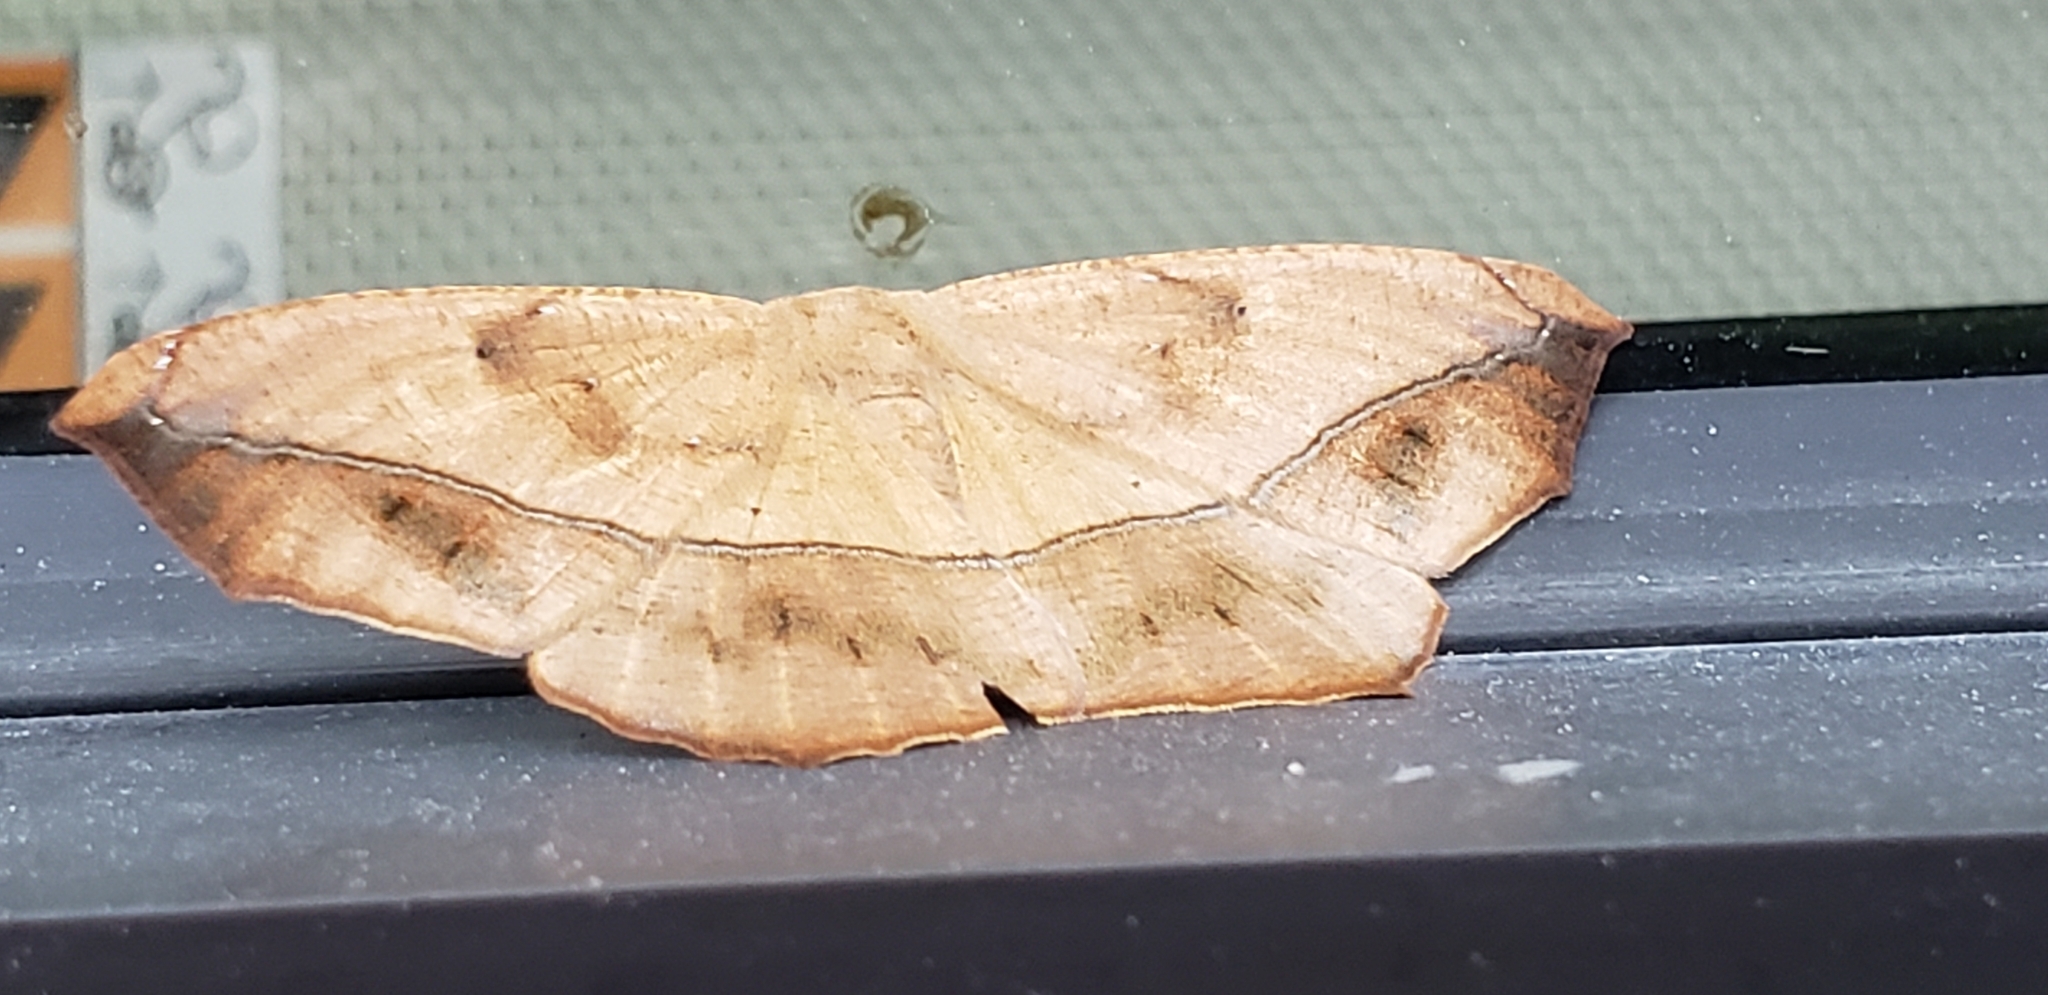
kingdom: Animalia
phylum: Arthropoda
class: Insecta
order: Lepidoptera
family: Geometridae
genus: Prochoerodes
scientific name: Prochoerodes lineola
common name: Large maple spanworm
